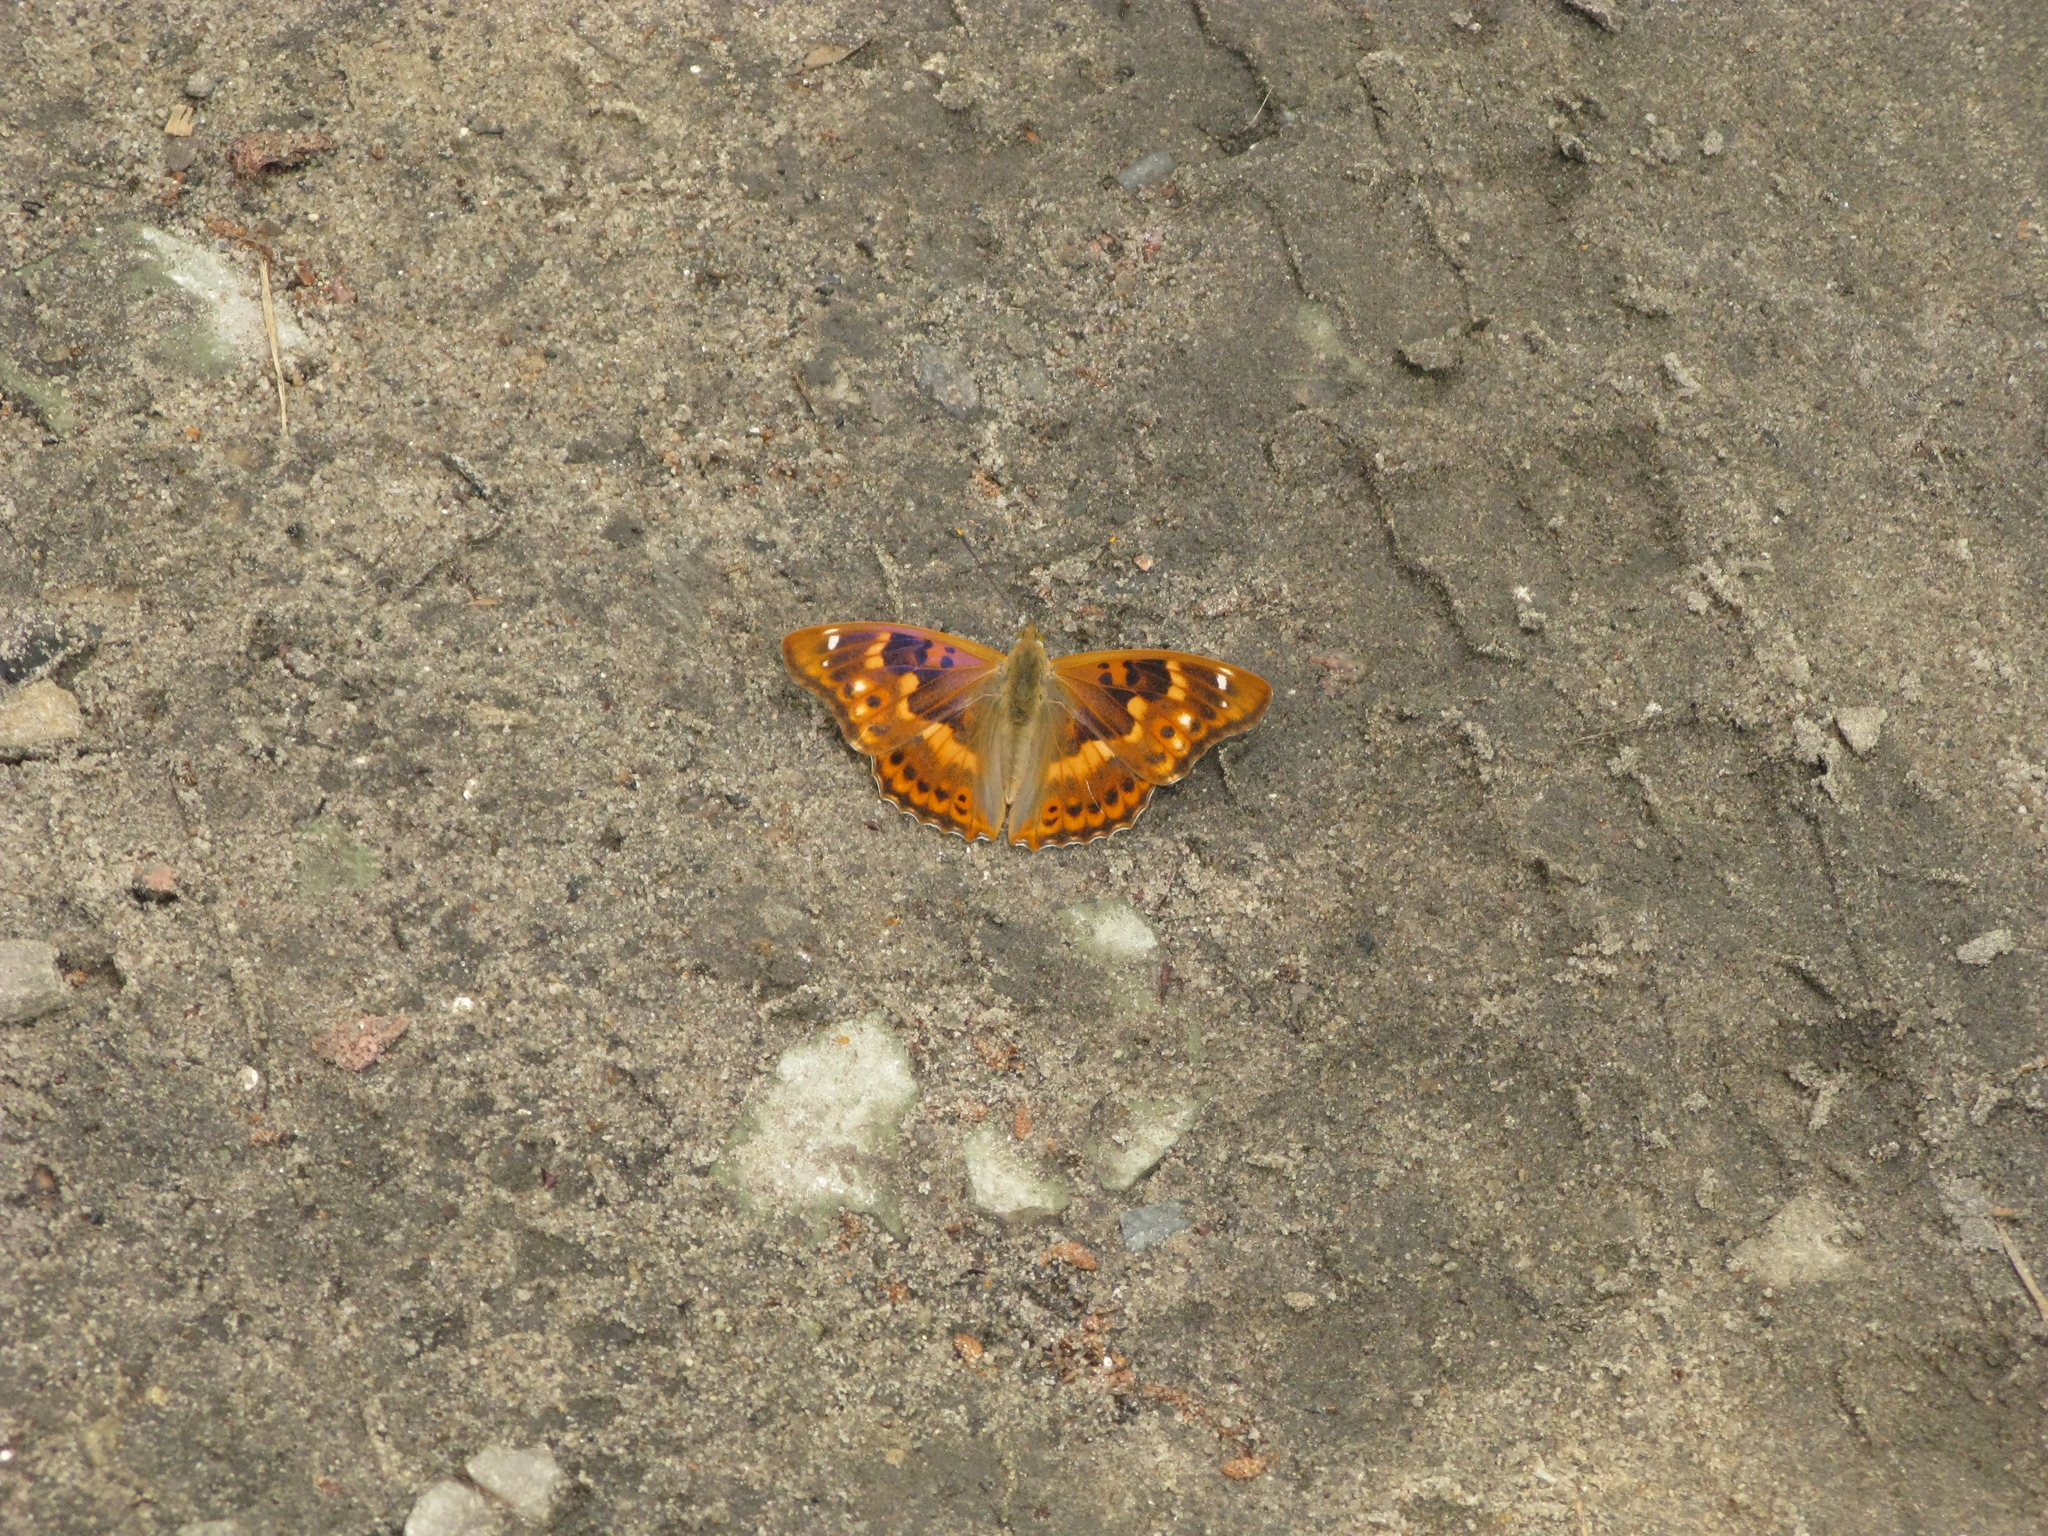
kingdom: Animalia
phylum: Arthropoda
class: Insecta
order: Lepidoptera
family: Nymphalidae
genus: Apatura
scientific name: Apatura ilia
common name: Lesser purple emperor
